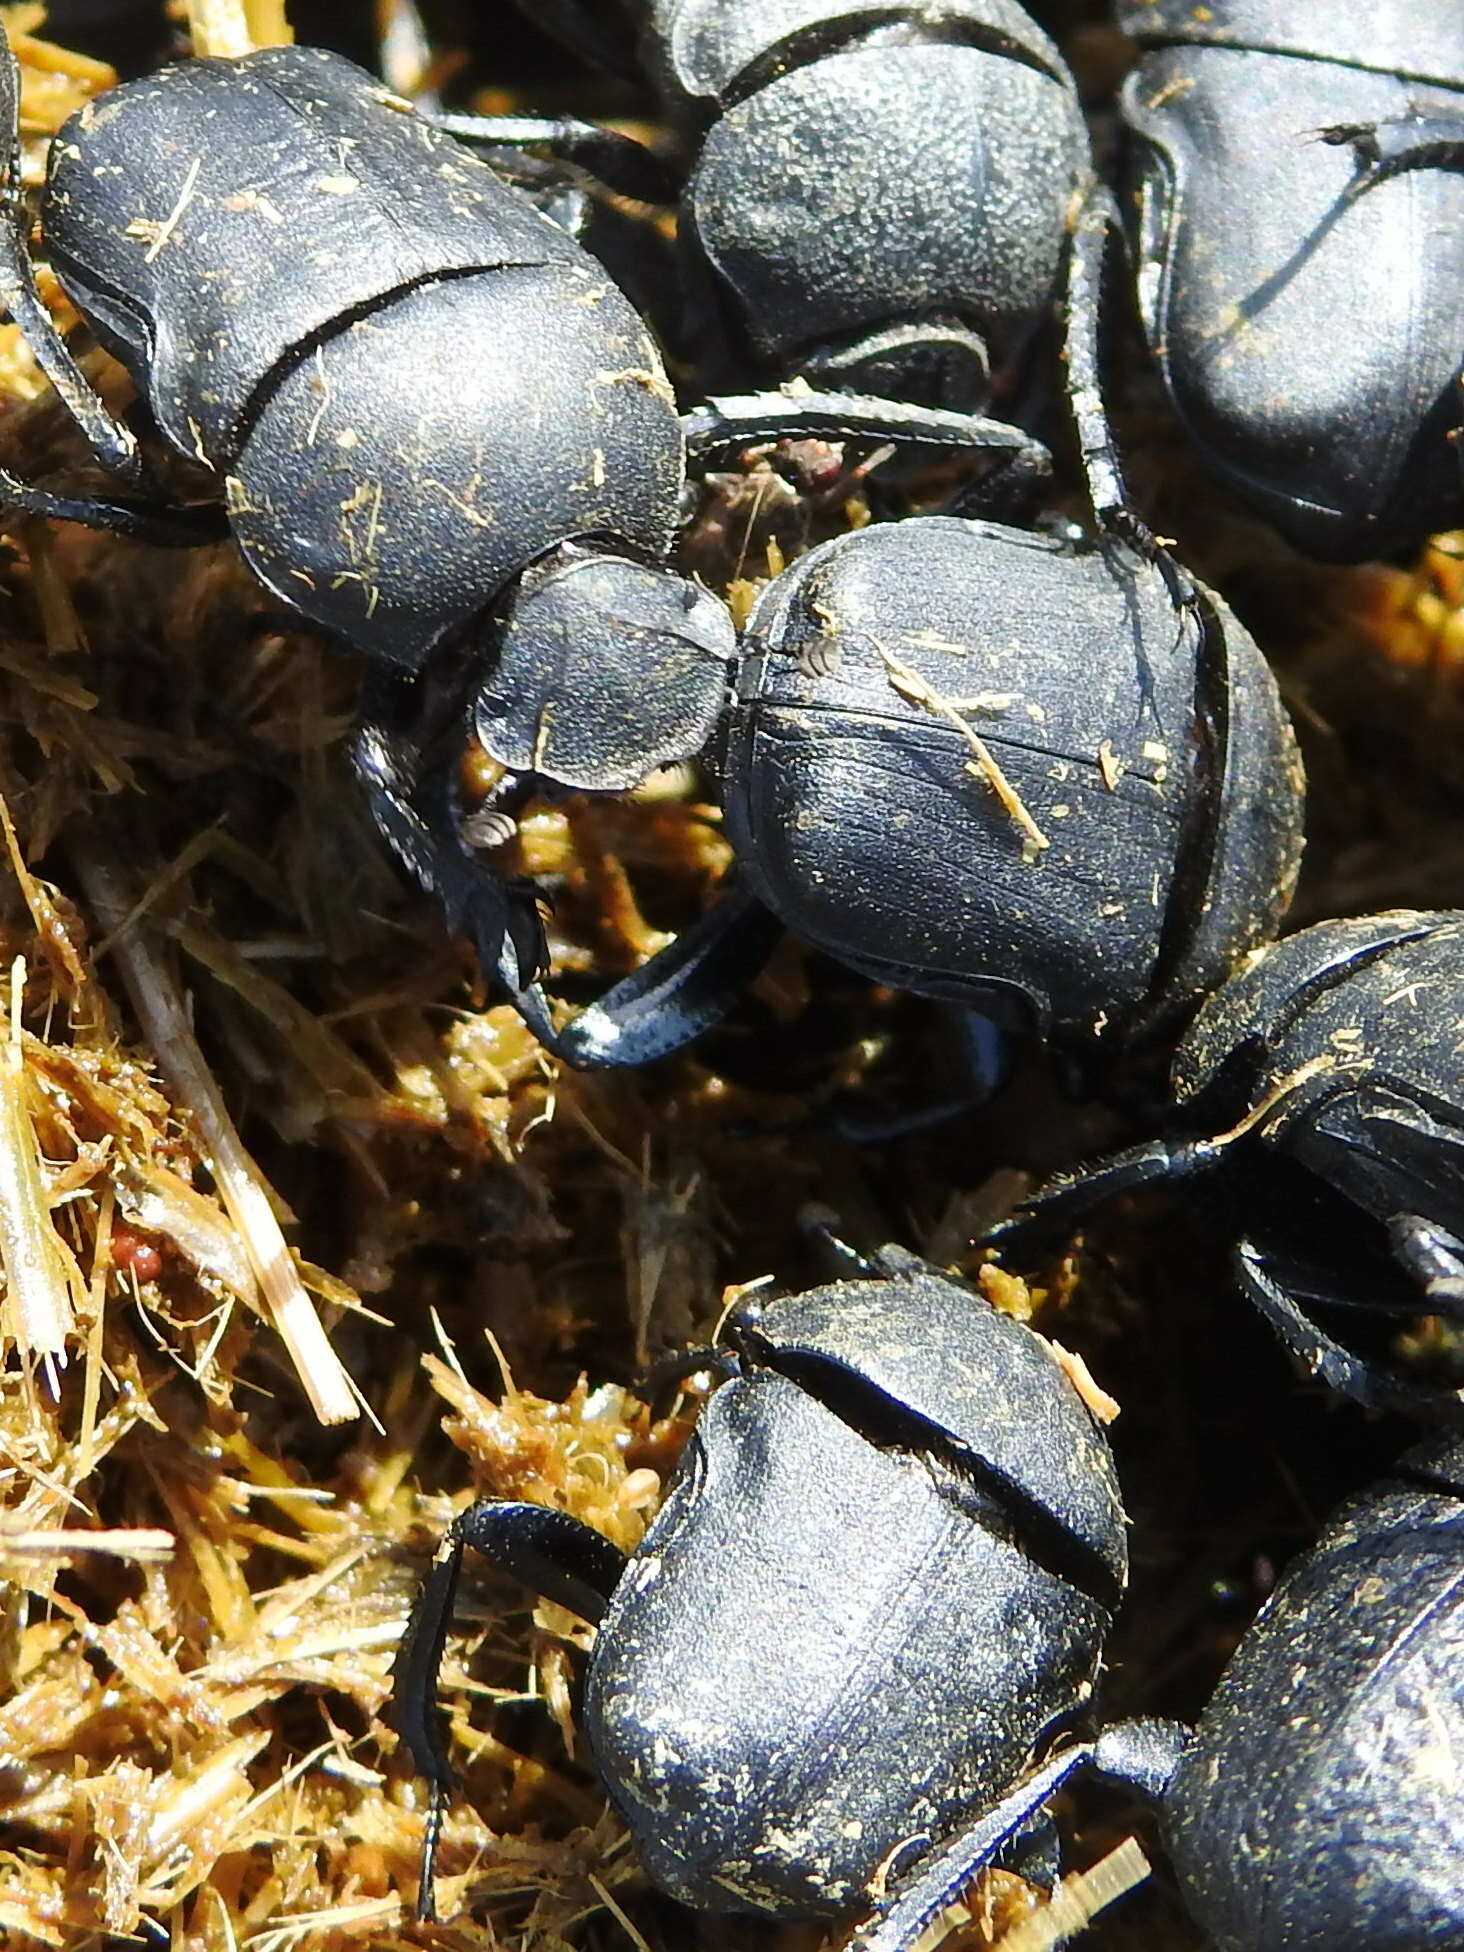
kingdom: Animalia
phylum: Arthropoda
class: Insecta
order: Coleoptera
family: Scarabaeidae
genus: Gymnopleurus
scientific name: Gymnopleurus mopsus
